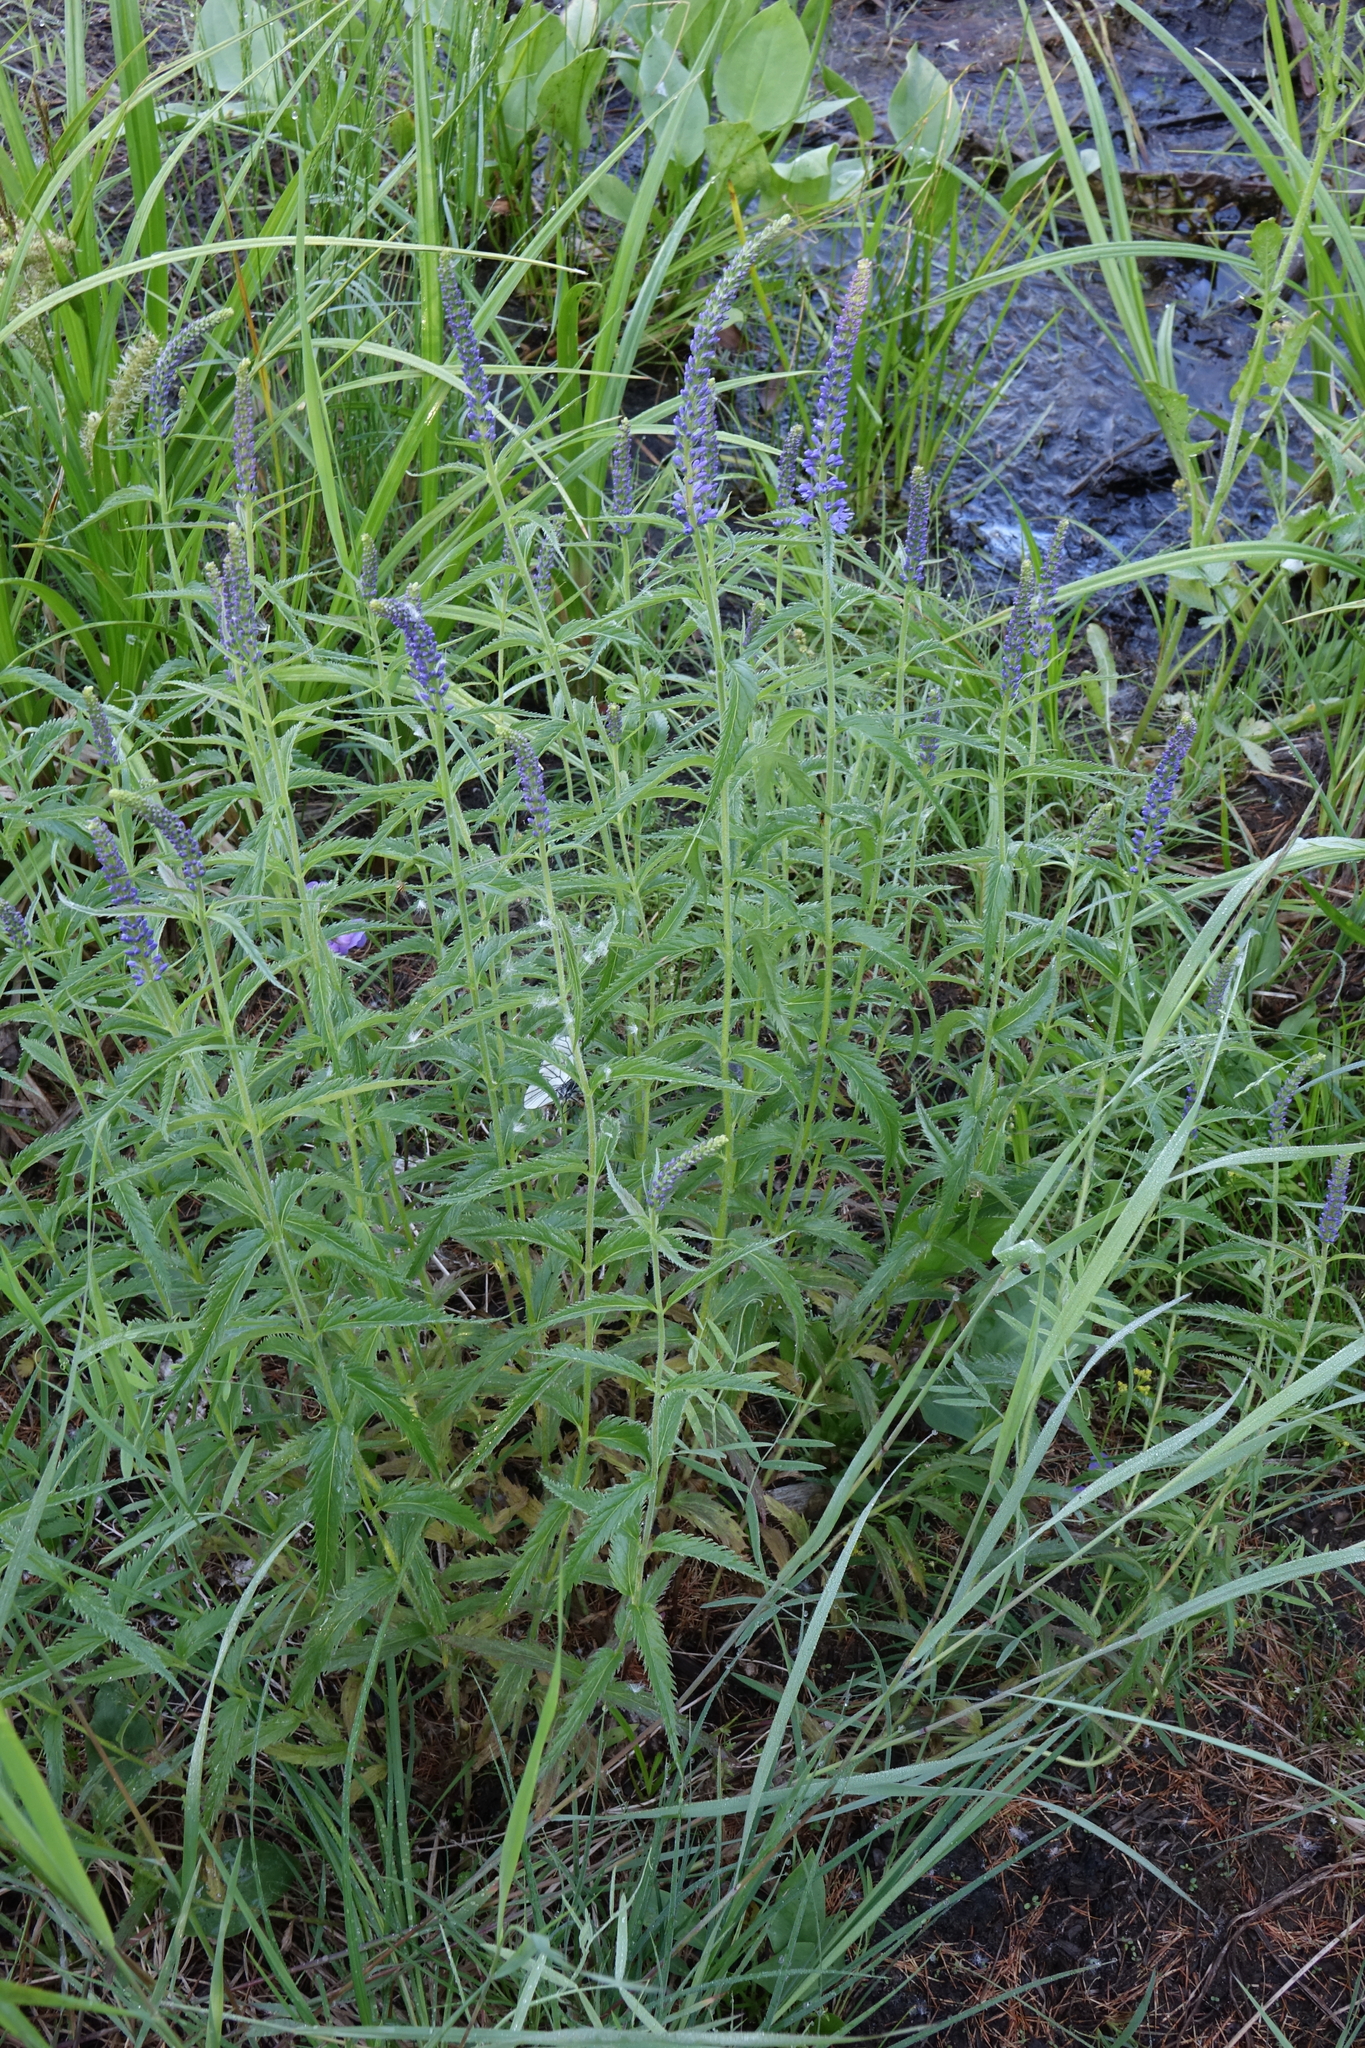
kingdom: Plantae
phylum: Tracheophyta
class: Magnoliopsida
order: Lamiales
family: Plantaginaceae
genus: Veronica
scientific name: Veronica longifolia
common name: Garden speedwell
